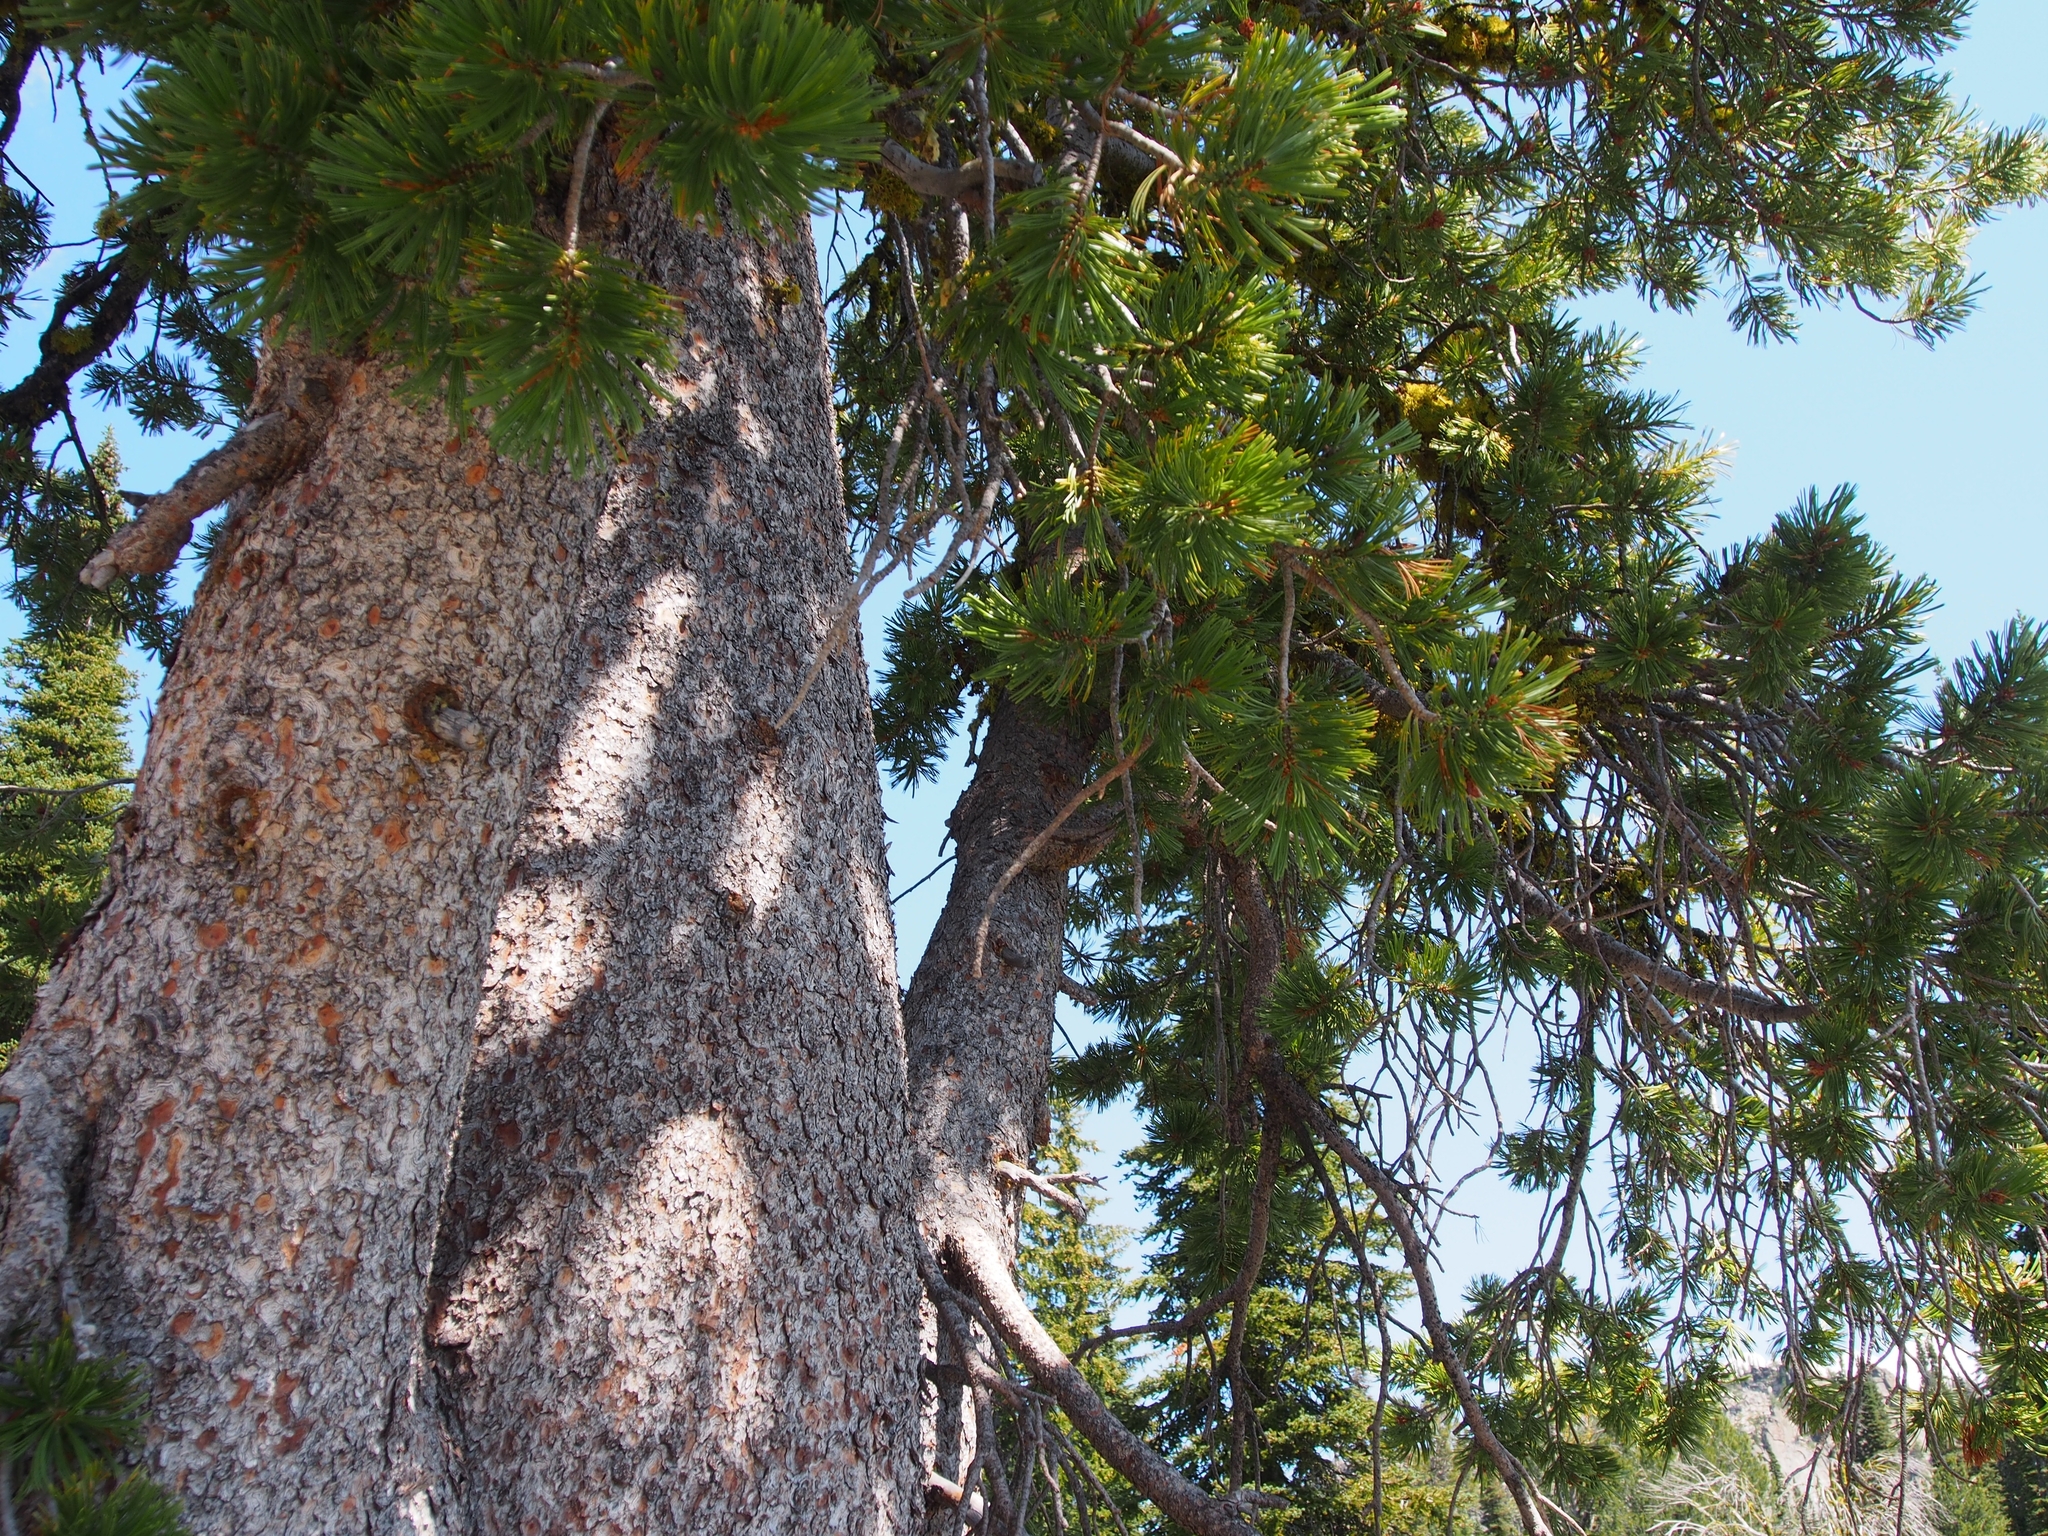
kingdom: Plantae
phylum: Tracheophyta
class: Pinopsida
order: Pinales
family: Pinaceae
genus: Pinus
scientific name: Pinus albicaulis
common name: Whitebark pine
